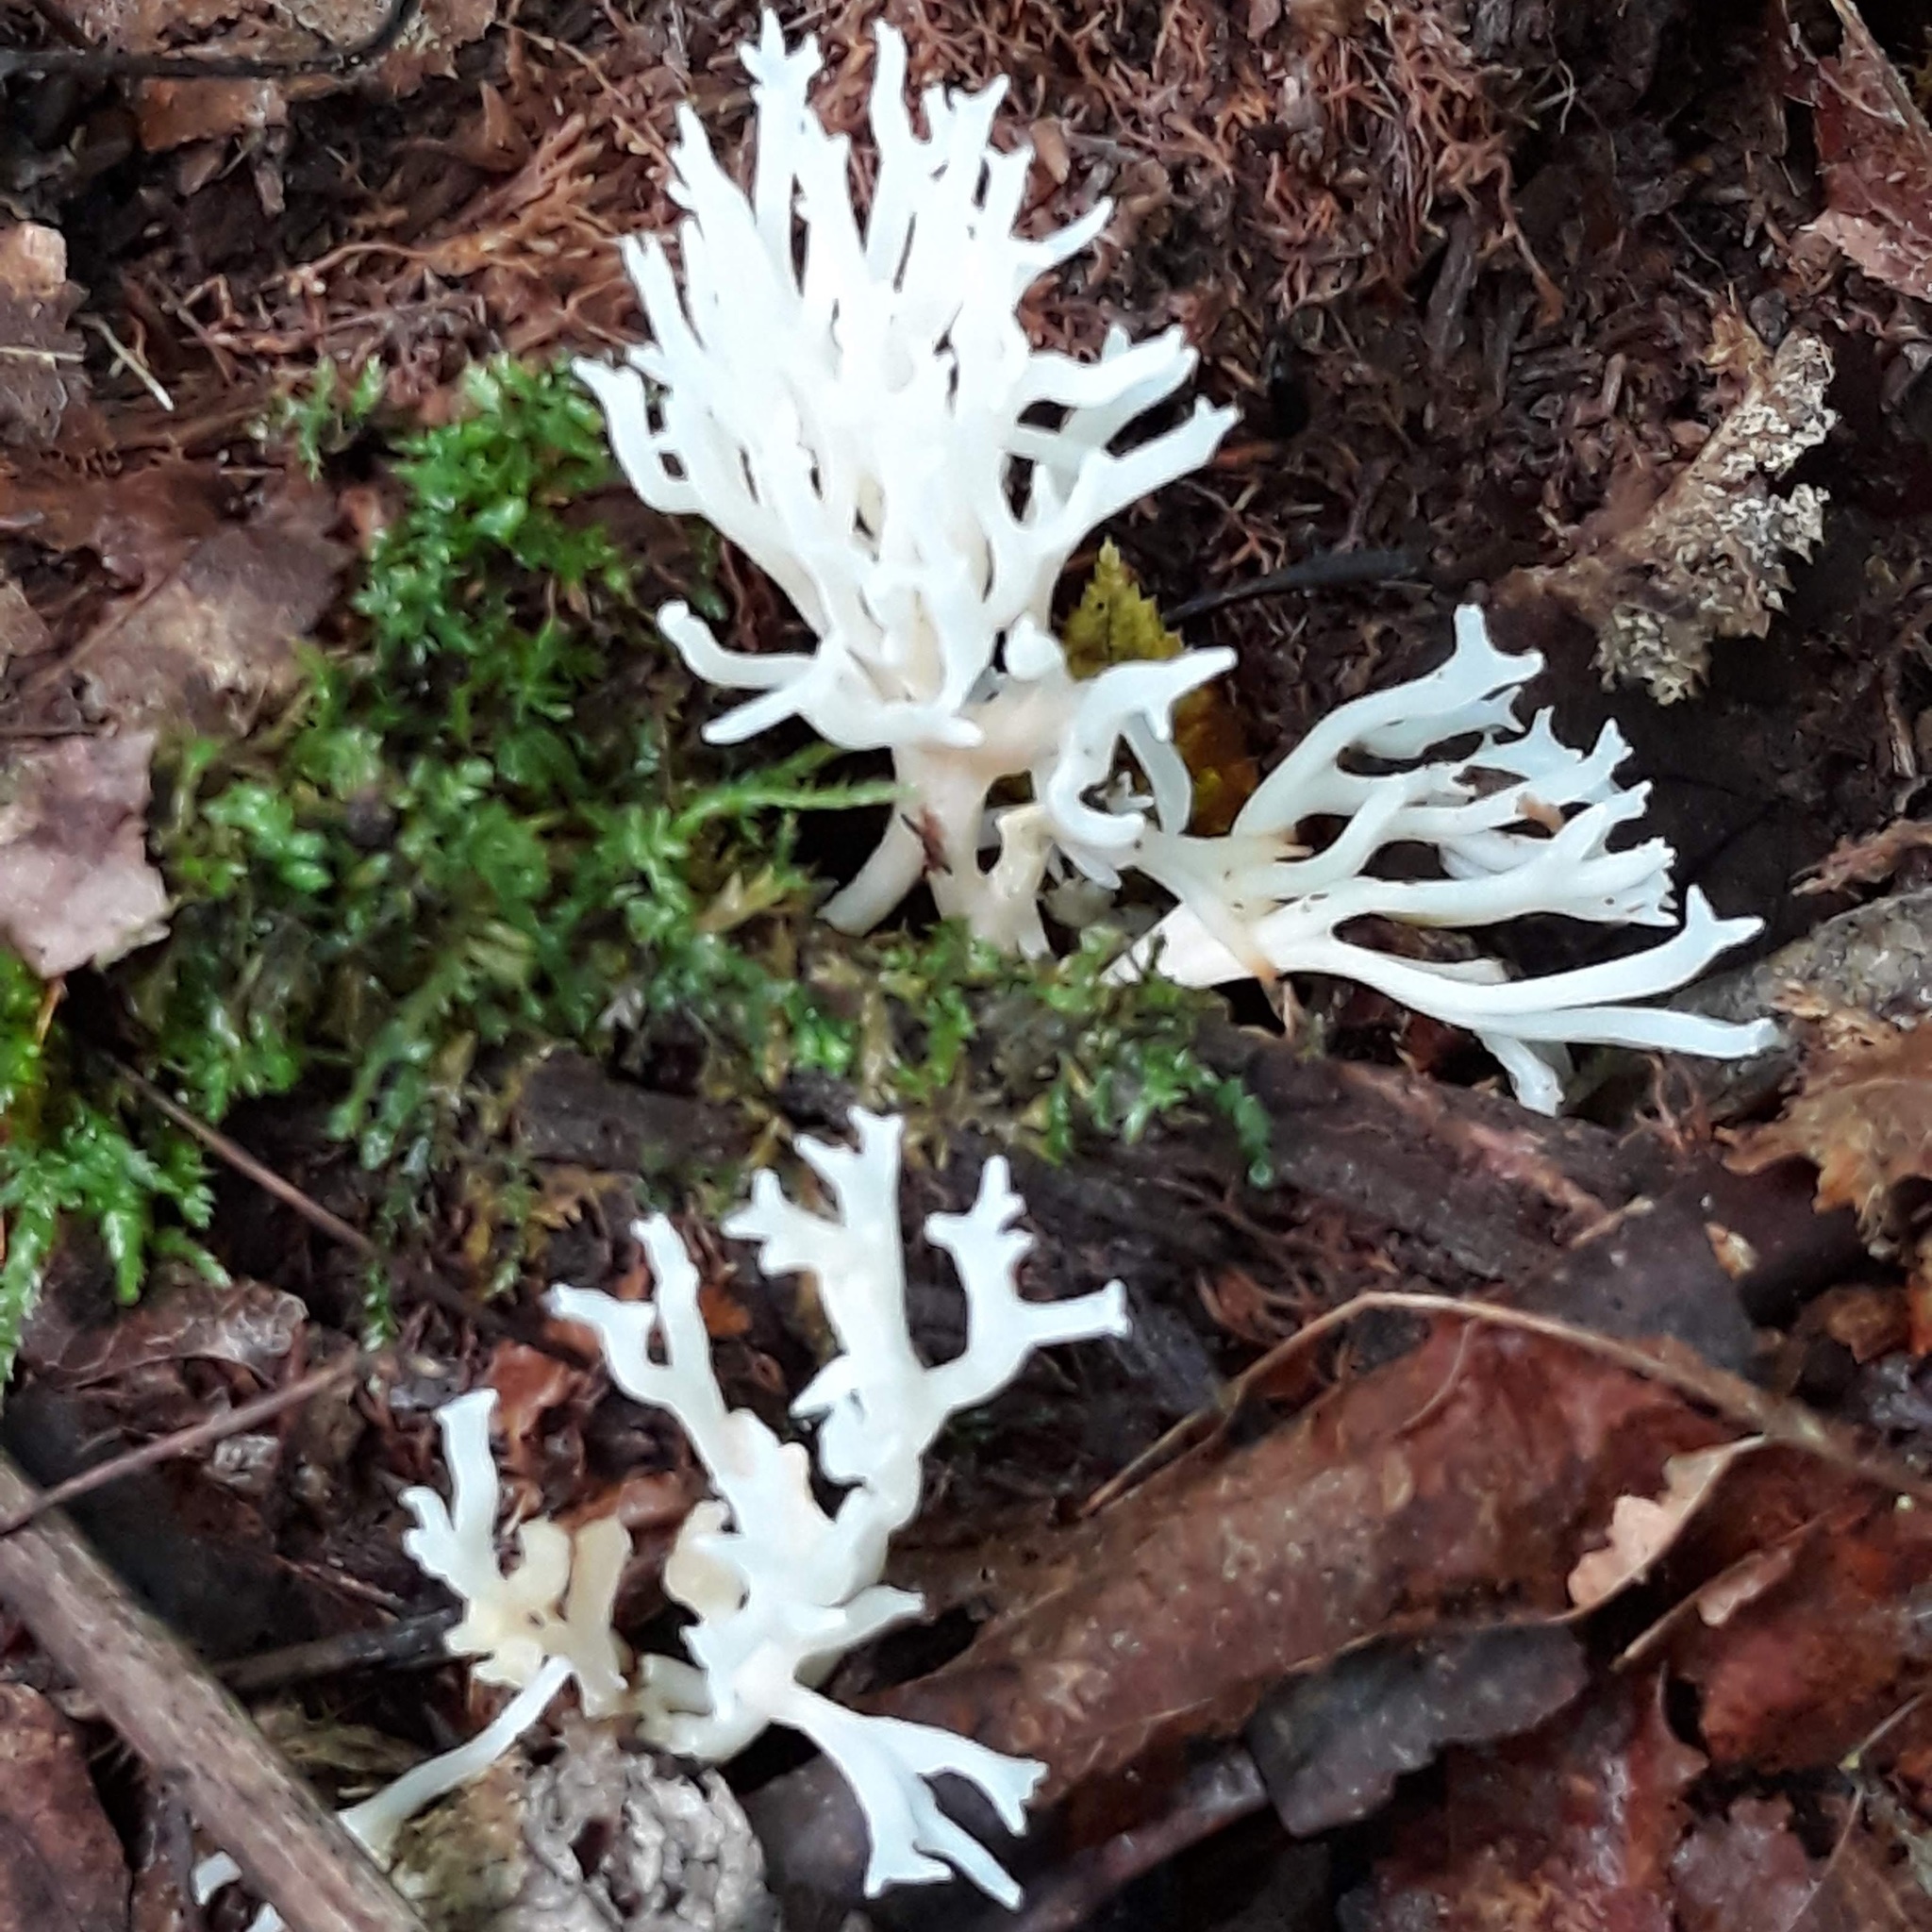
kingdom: Fungi
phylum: Basidiomycota
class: Agaricomycetes
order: Agaricales
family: Clavariaceae
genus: Ramariopsis
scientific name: Ramariopsis kunzei
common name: Ivory coral
